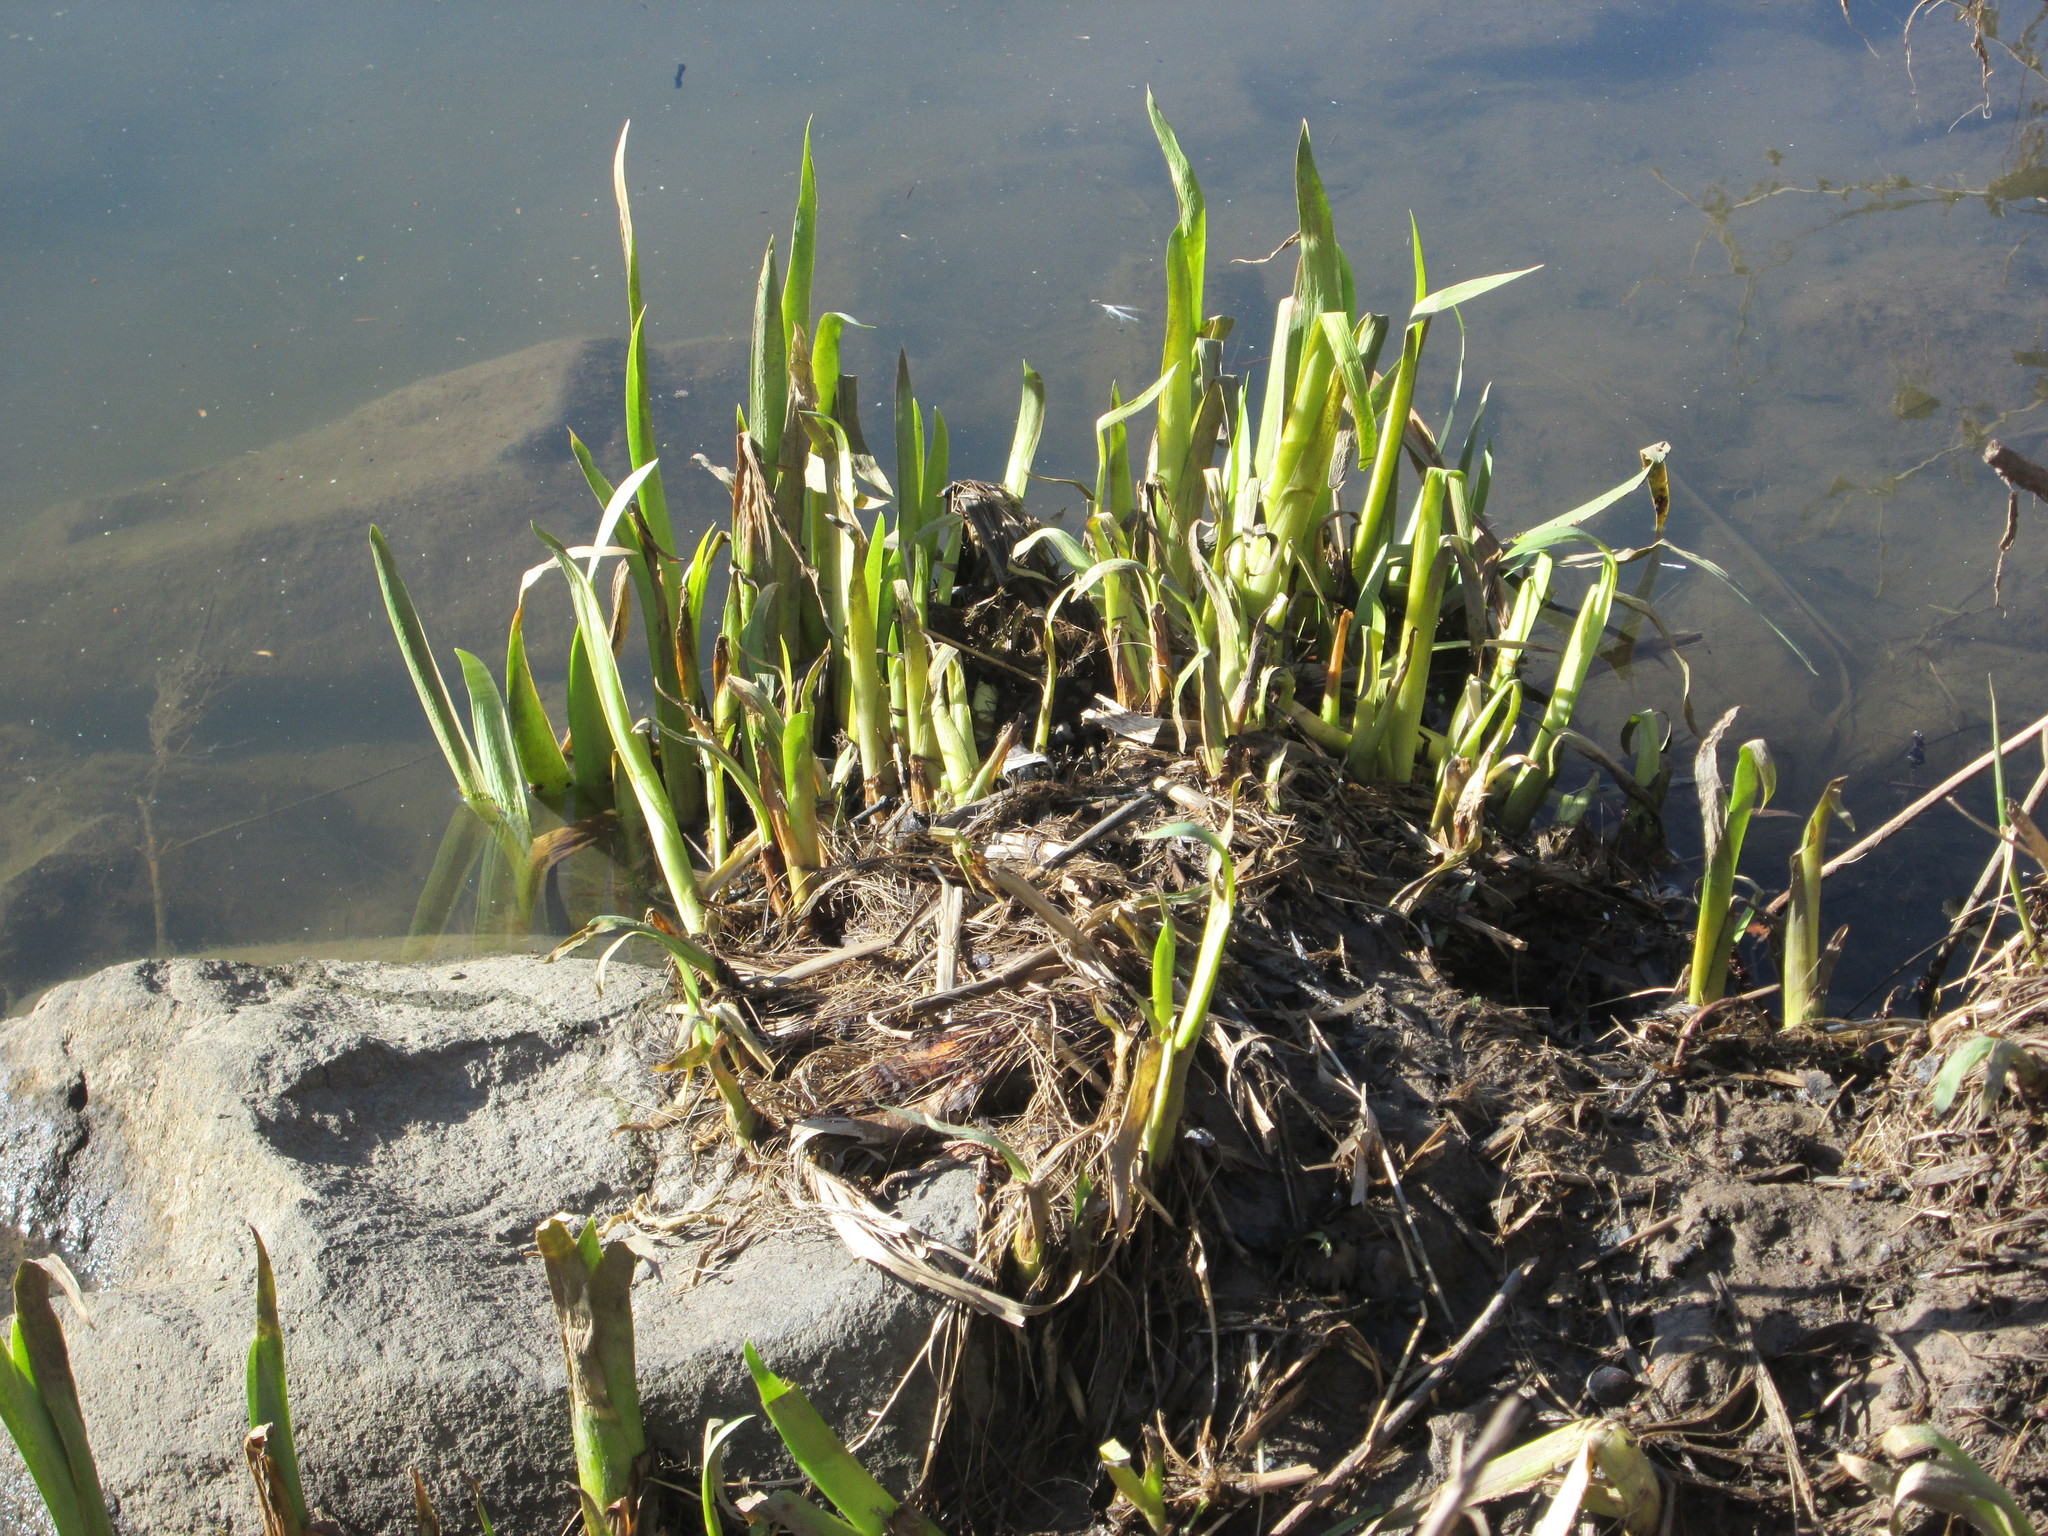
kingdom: Plantae
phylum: Tracheophyta
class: Liliopsida
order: Asparagales
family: Iridaceae
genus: Iris
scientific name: Iris pseudacorus
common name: Yellow flag
